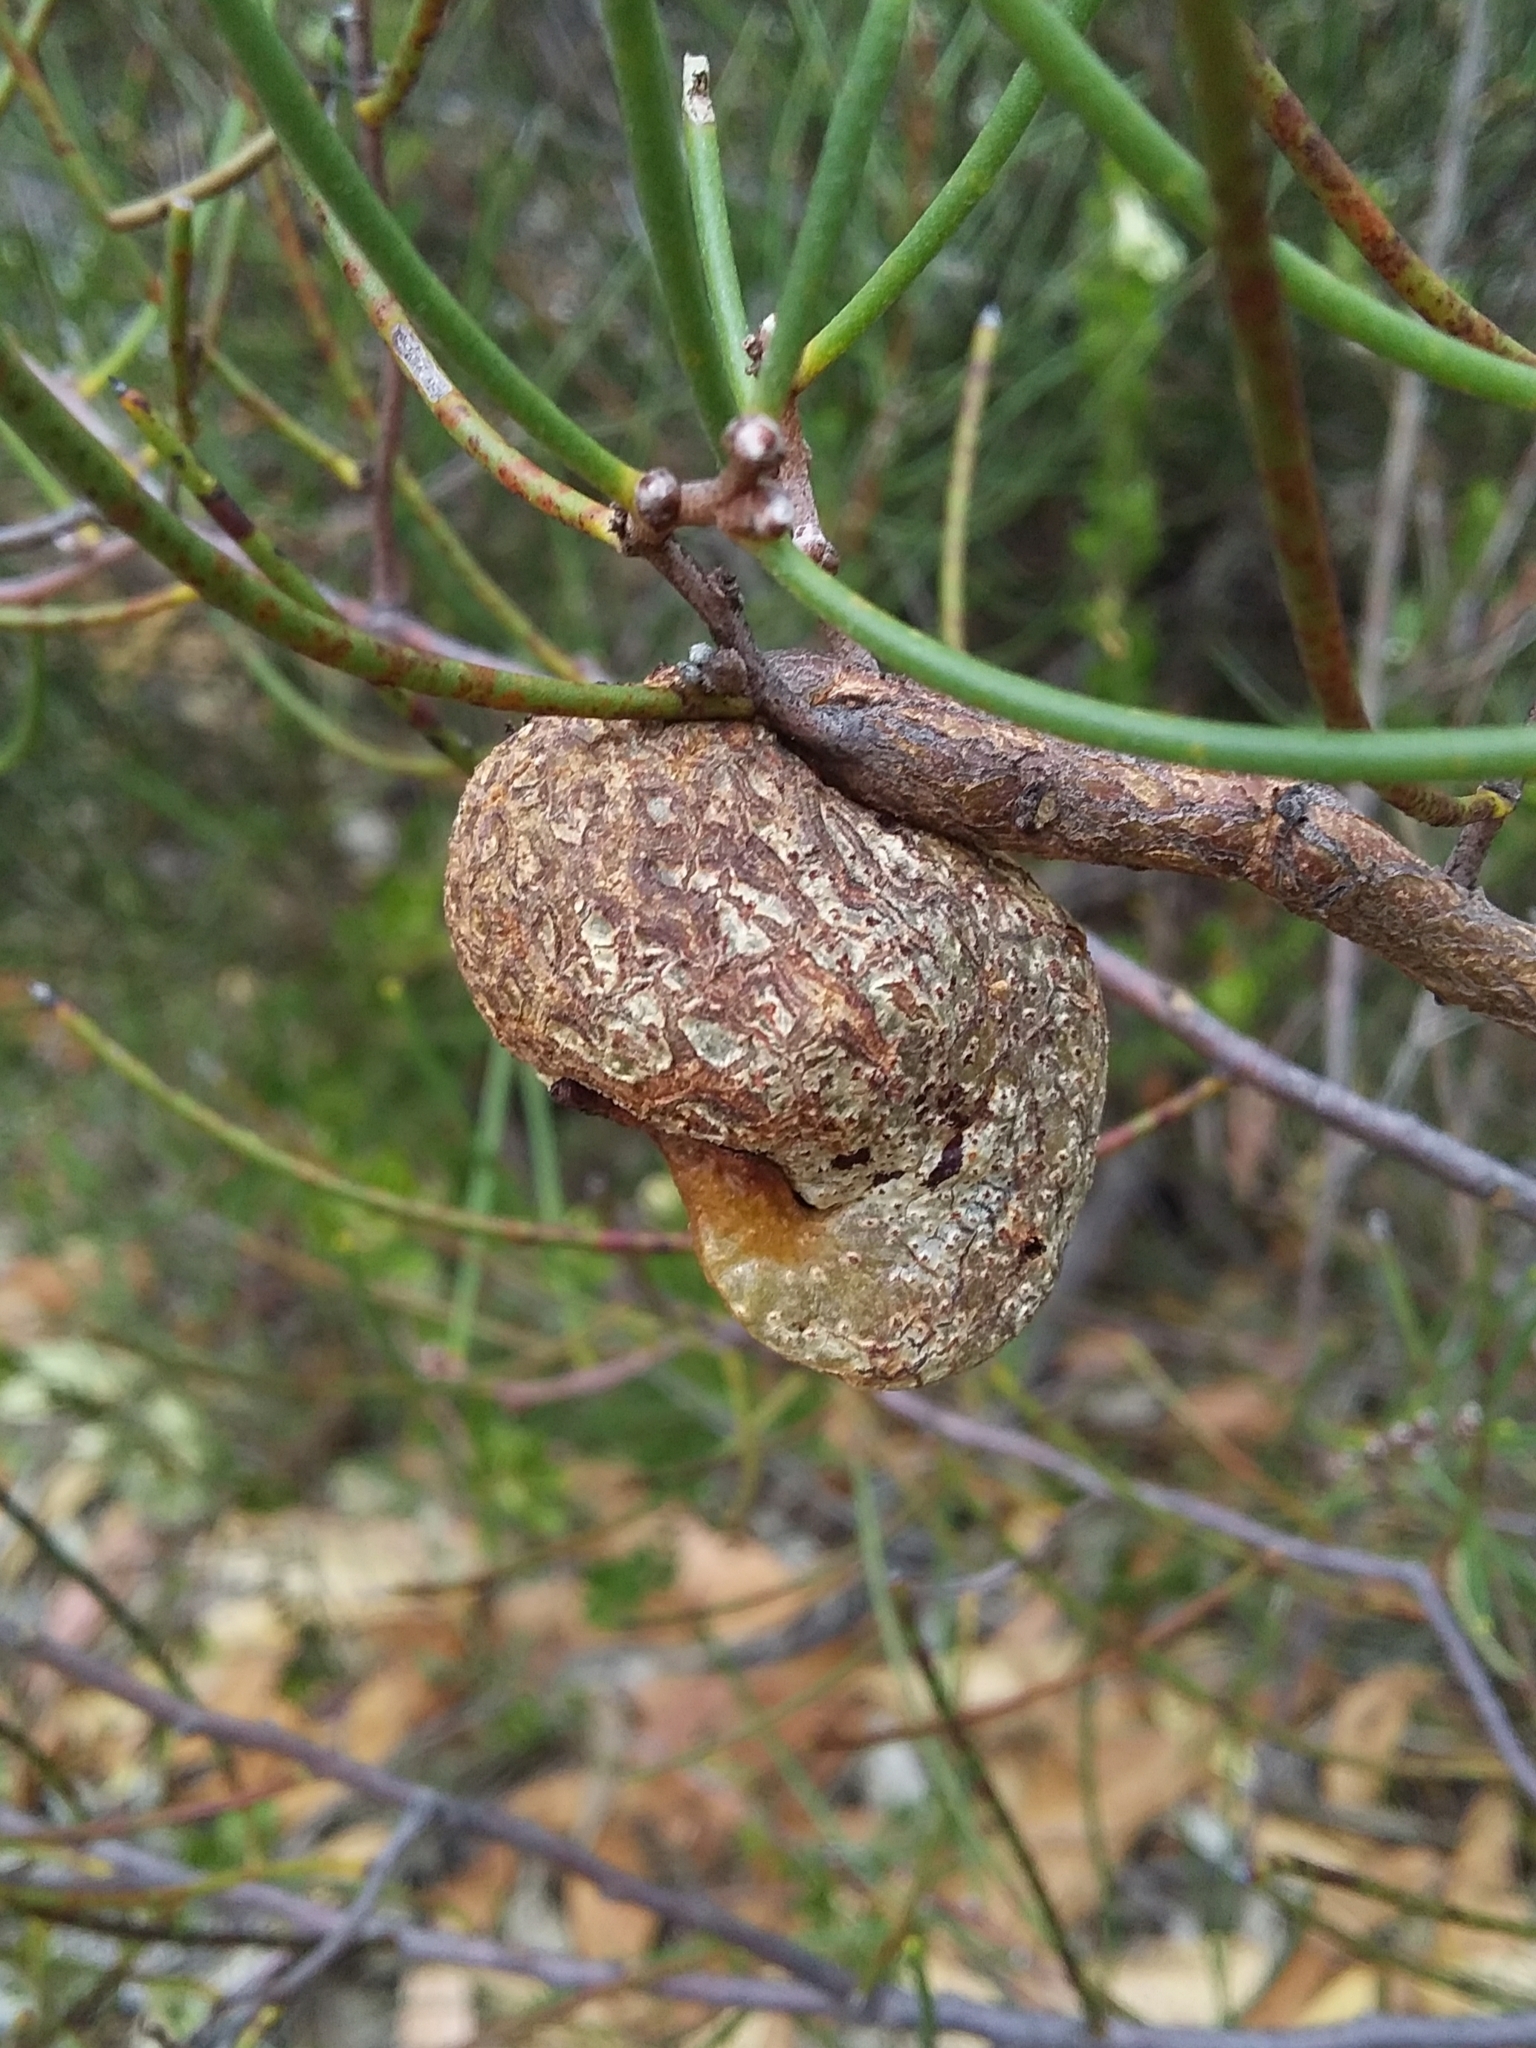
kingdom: Plantae
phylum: Tracheophyta
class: Magnoliopsida
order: Proteales
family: Proteaceae
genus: Hakea
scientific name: Hakea rostrata
